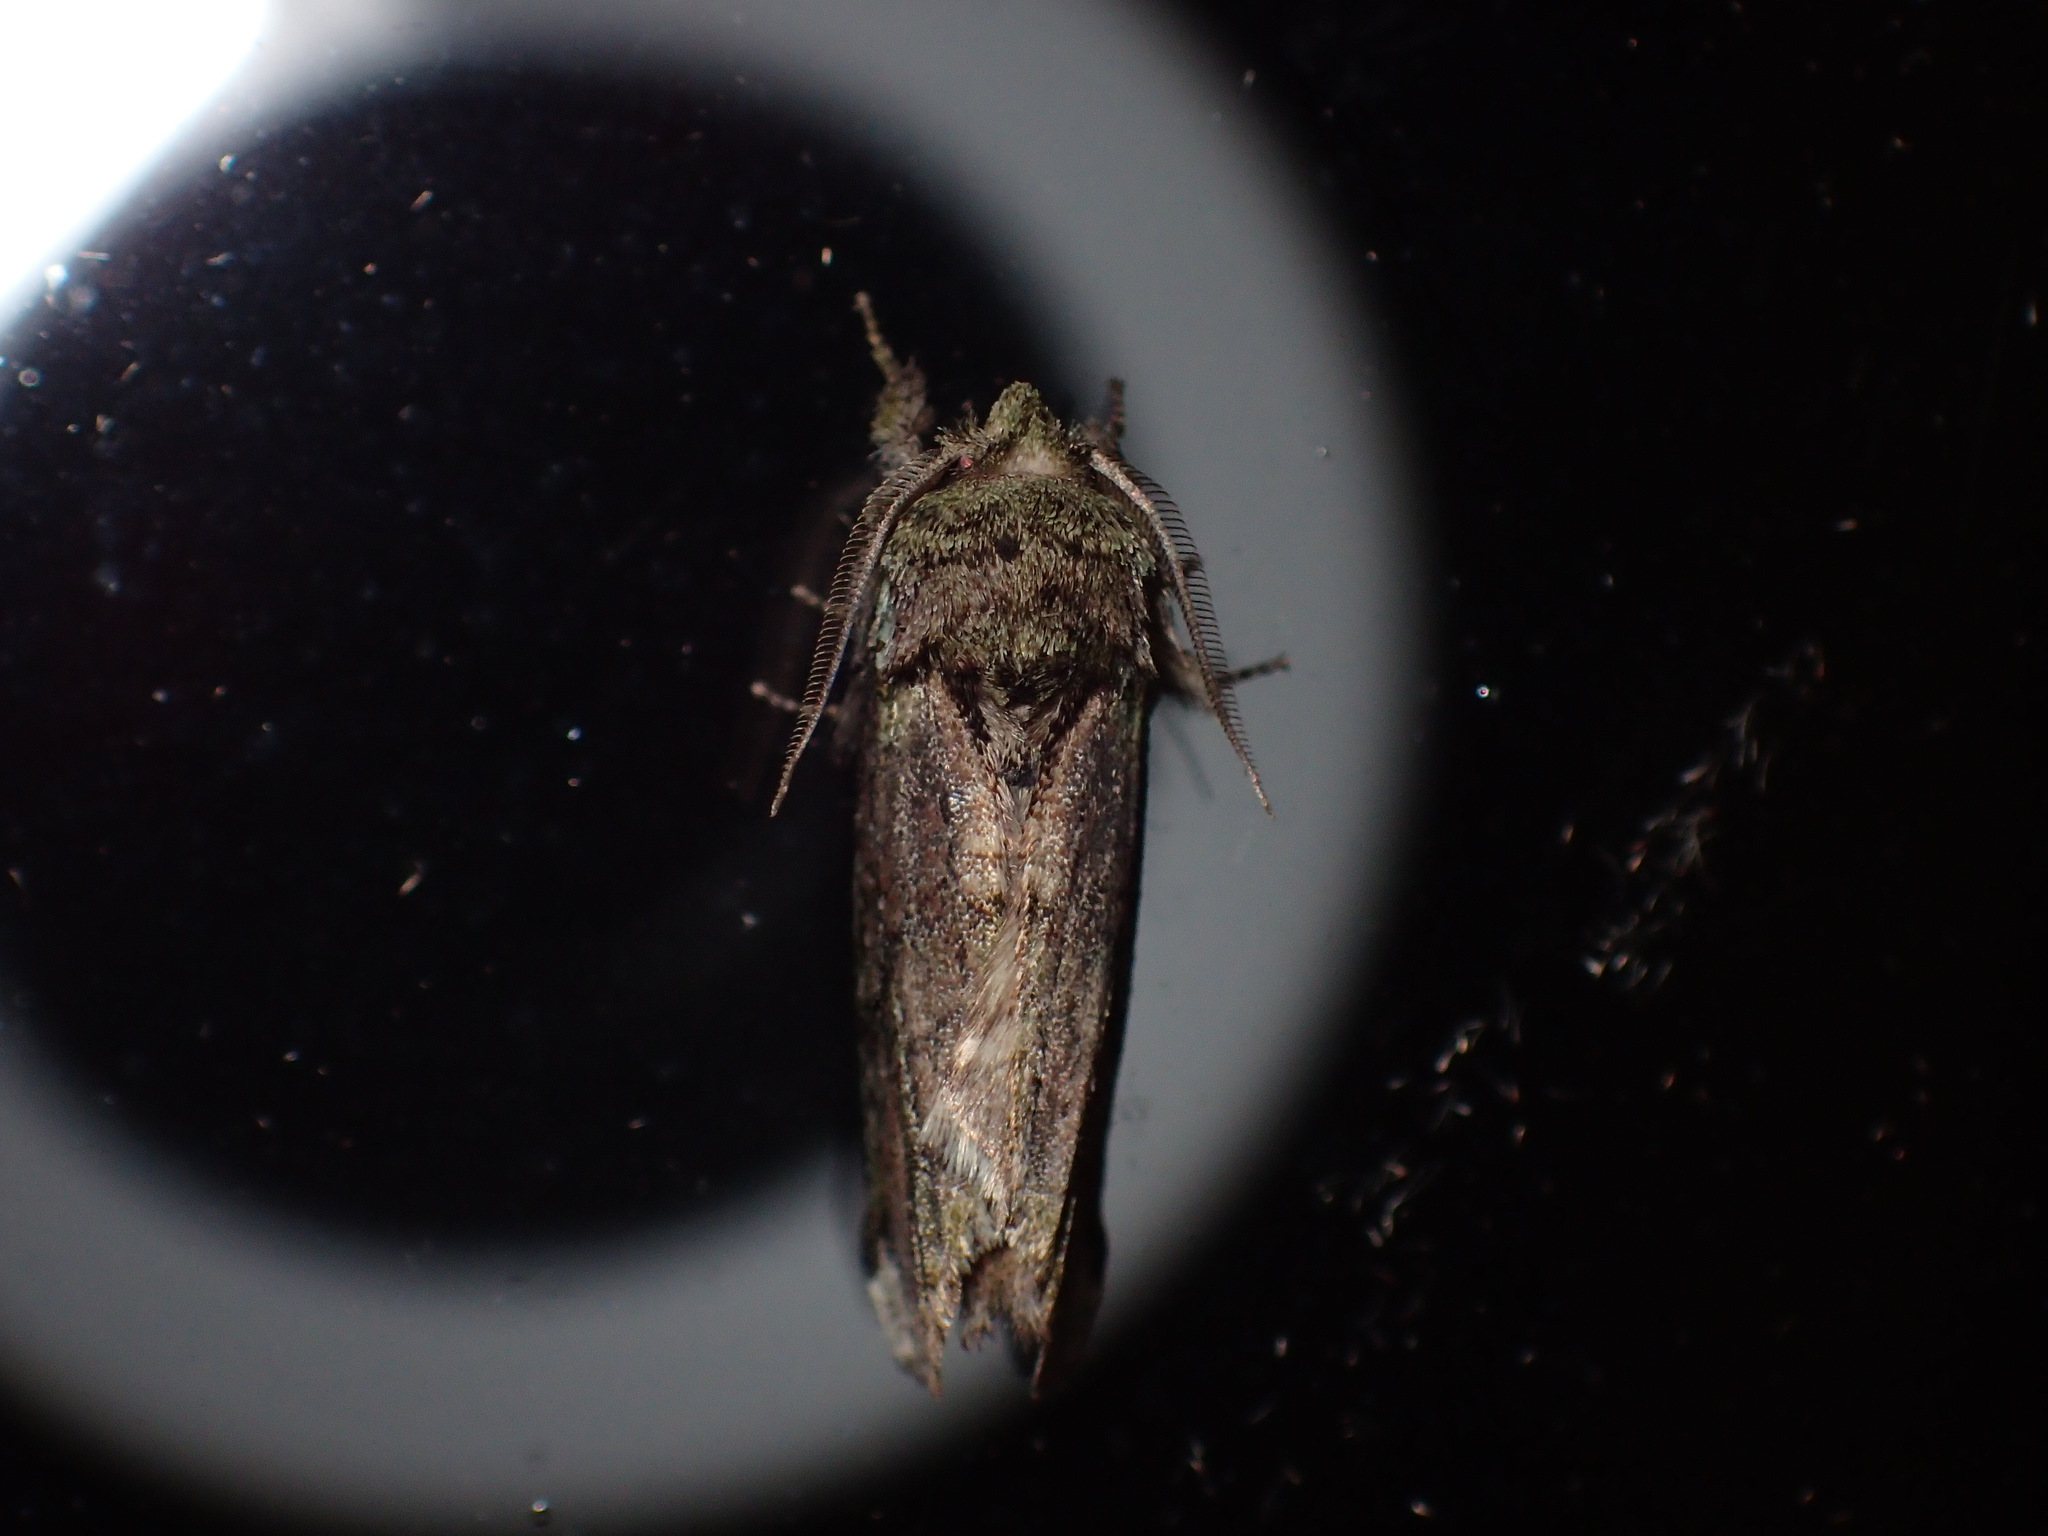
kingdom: Animalia
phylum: Arthropoda
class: Insecta
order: Lepidoptera
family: Notodontidae
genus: Schizura
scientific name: Schizura
